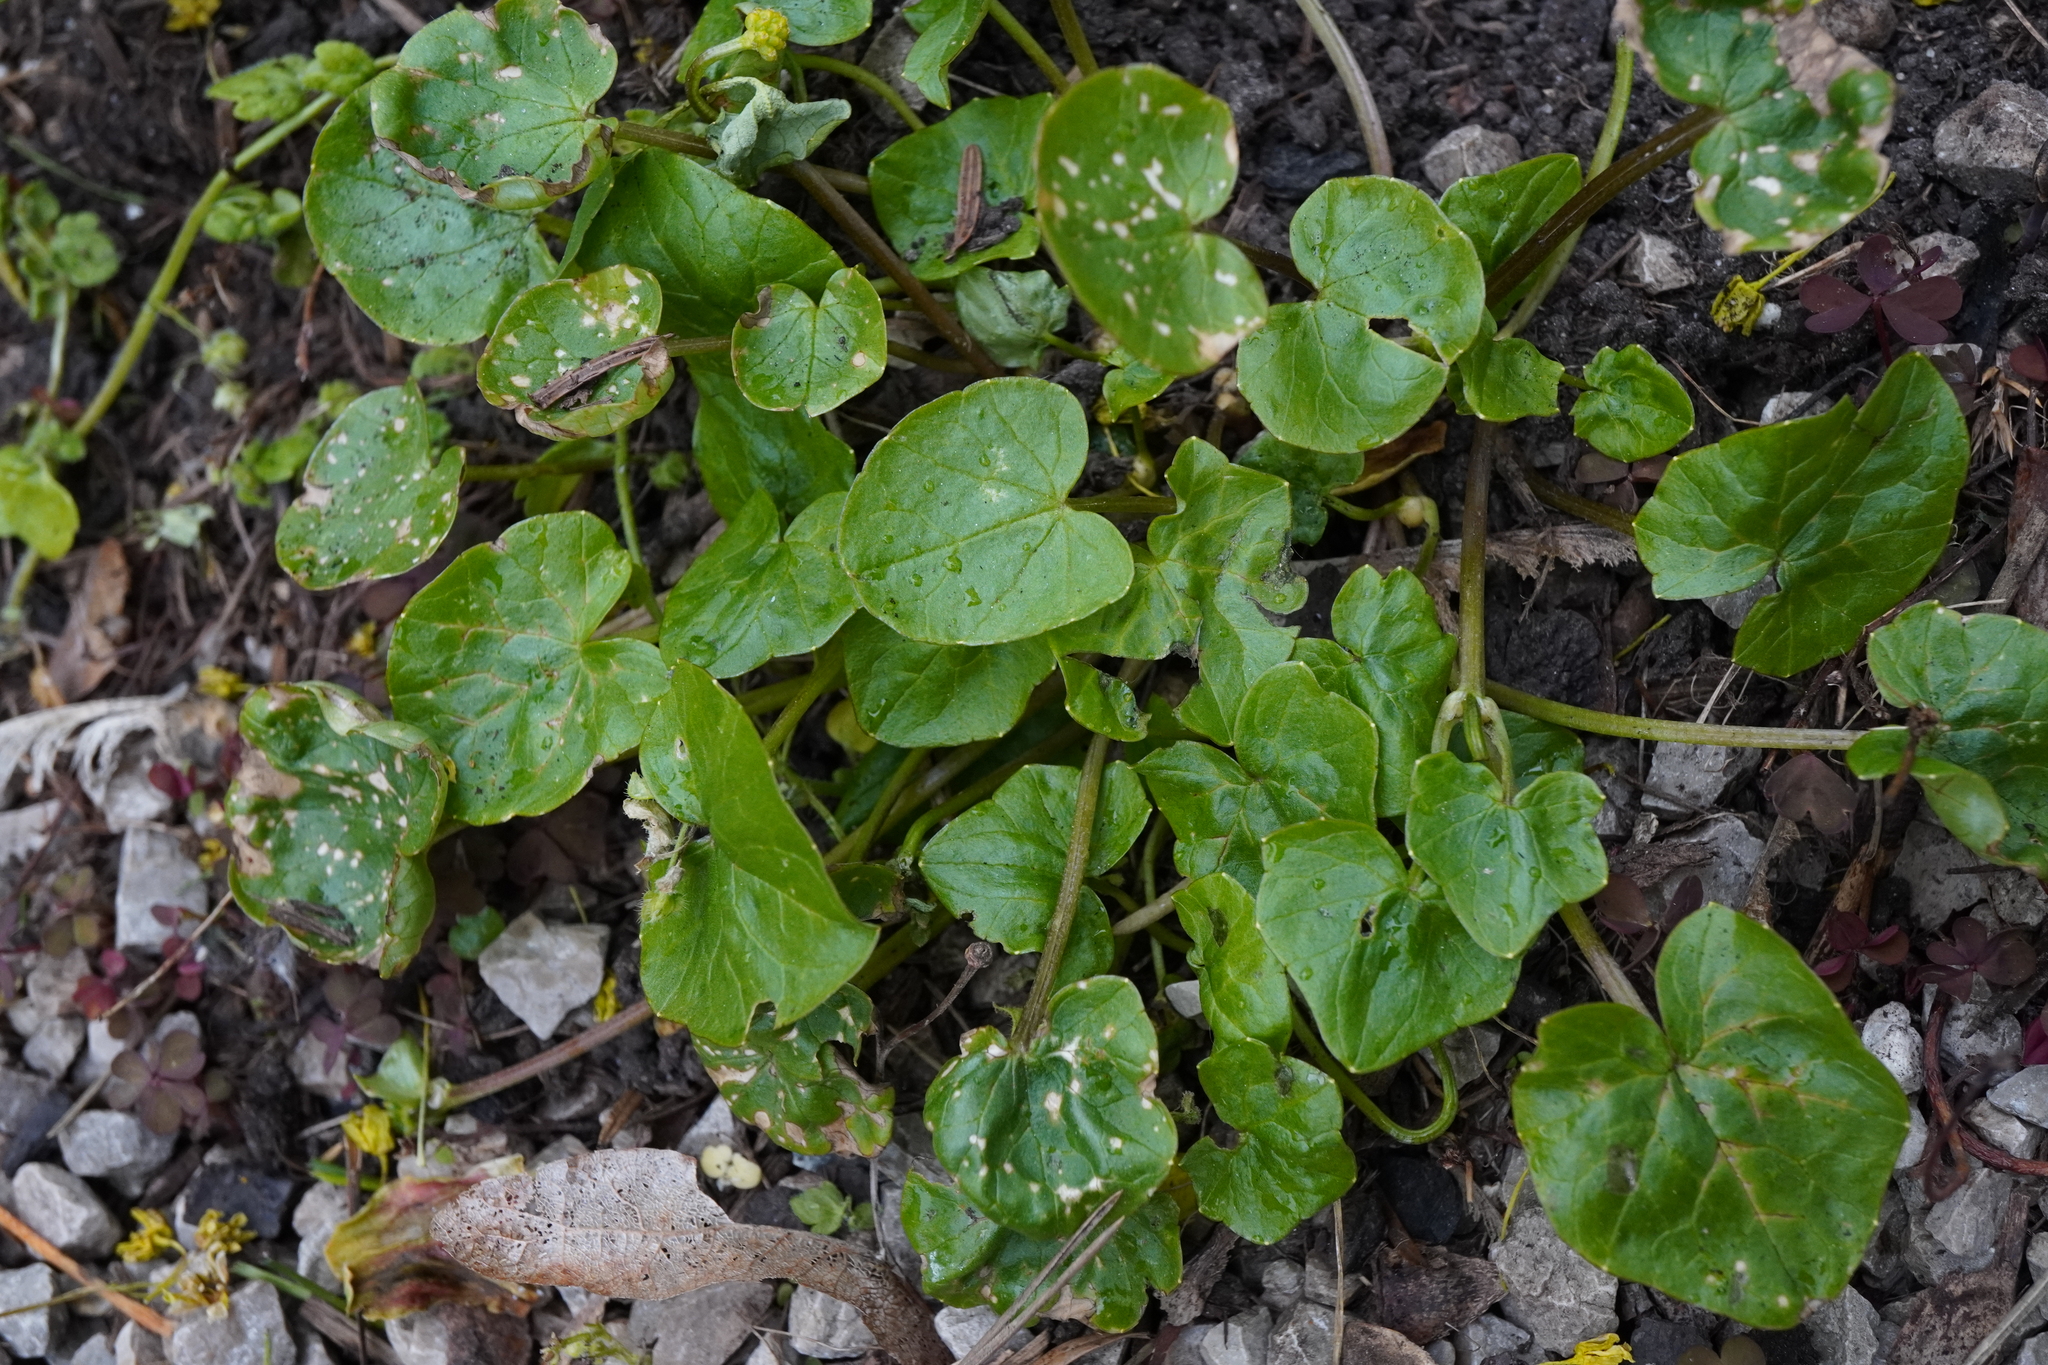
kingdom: Plantae
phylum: Tracheophyta
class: Magnoliopsida
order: Ranunculales
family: Ranunculaceae
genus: Ficaria
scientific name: Ficaria verna
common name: Lesser celandine
